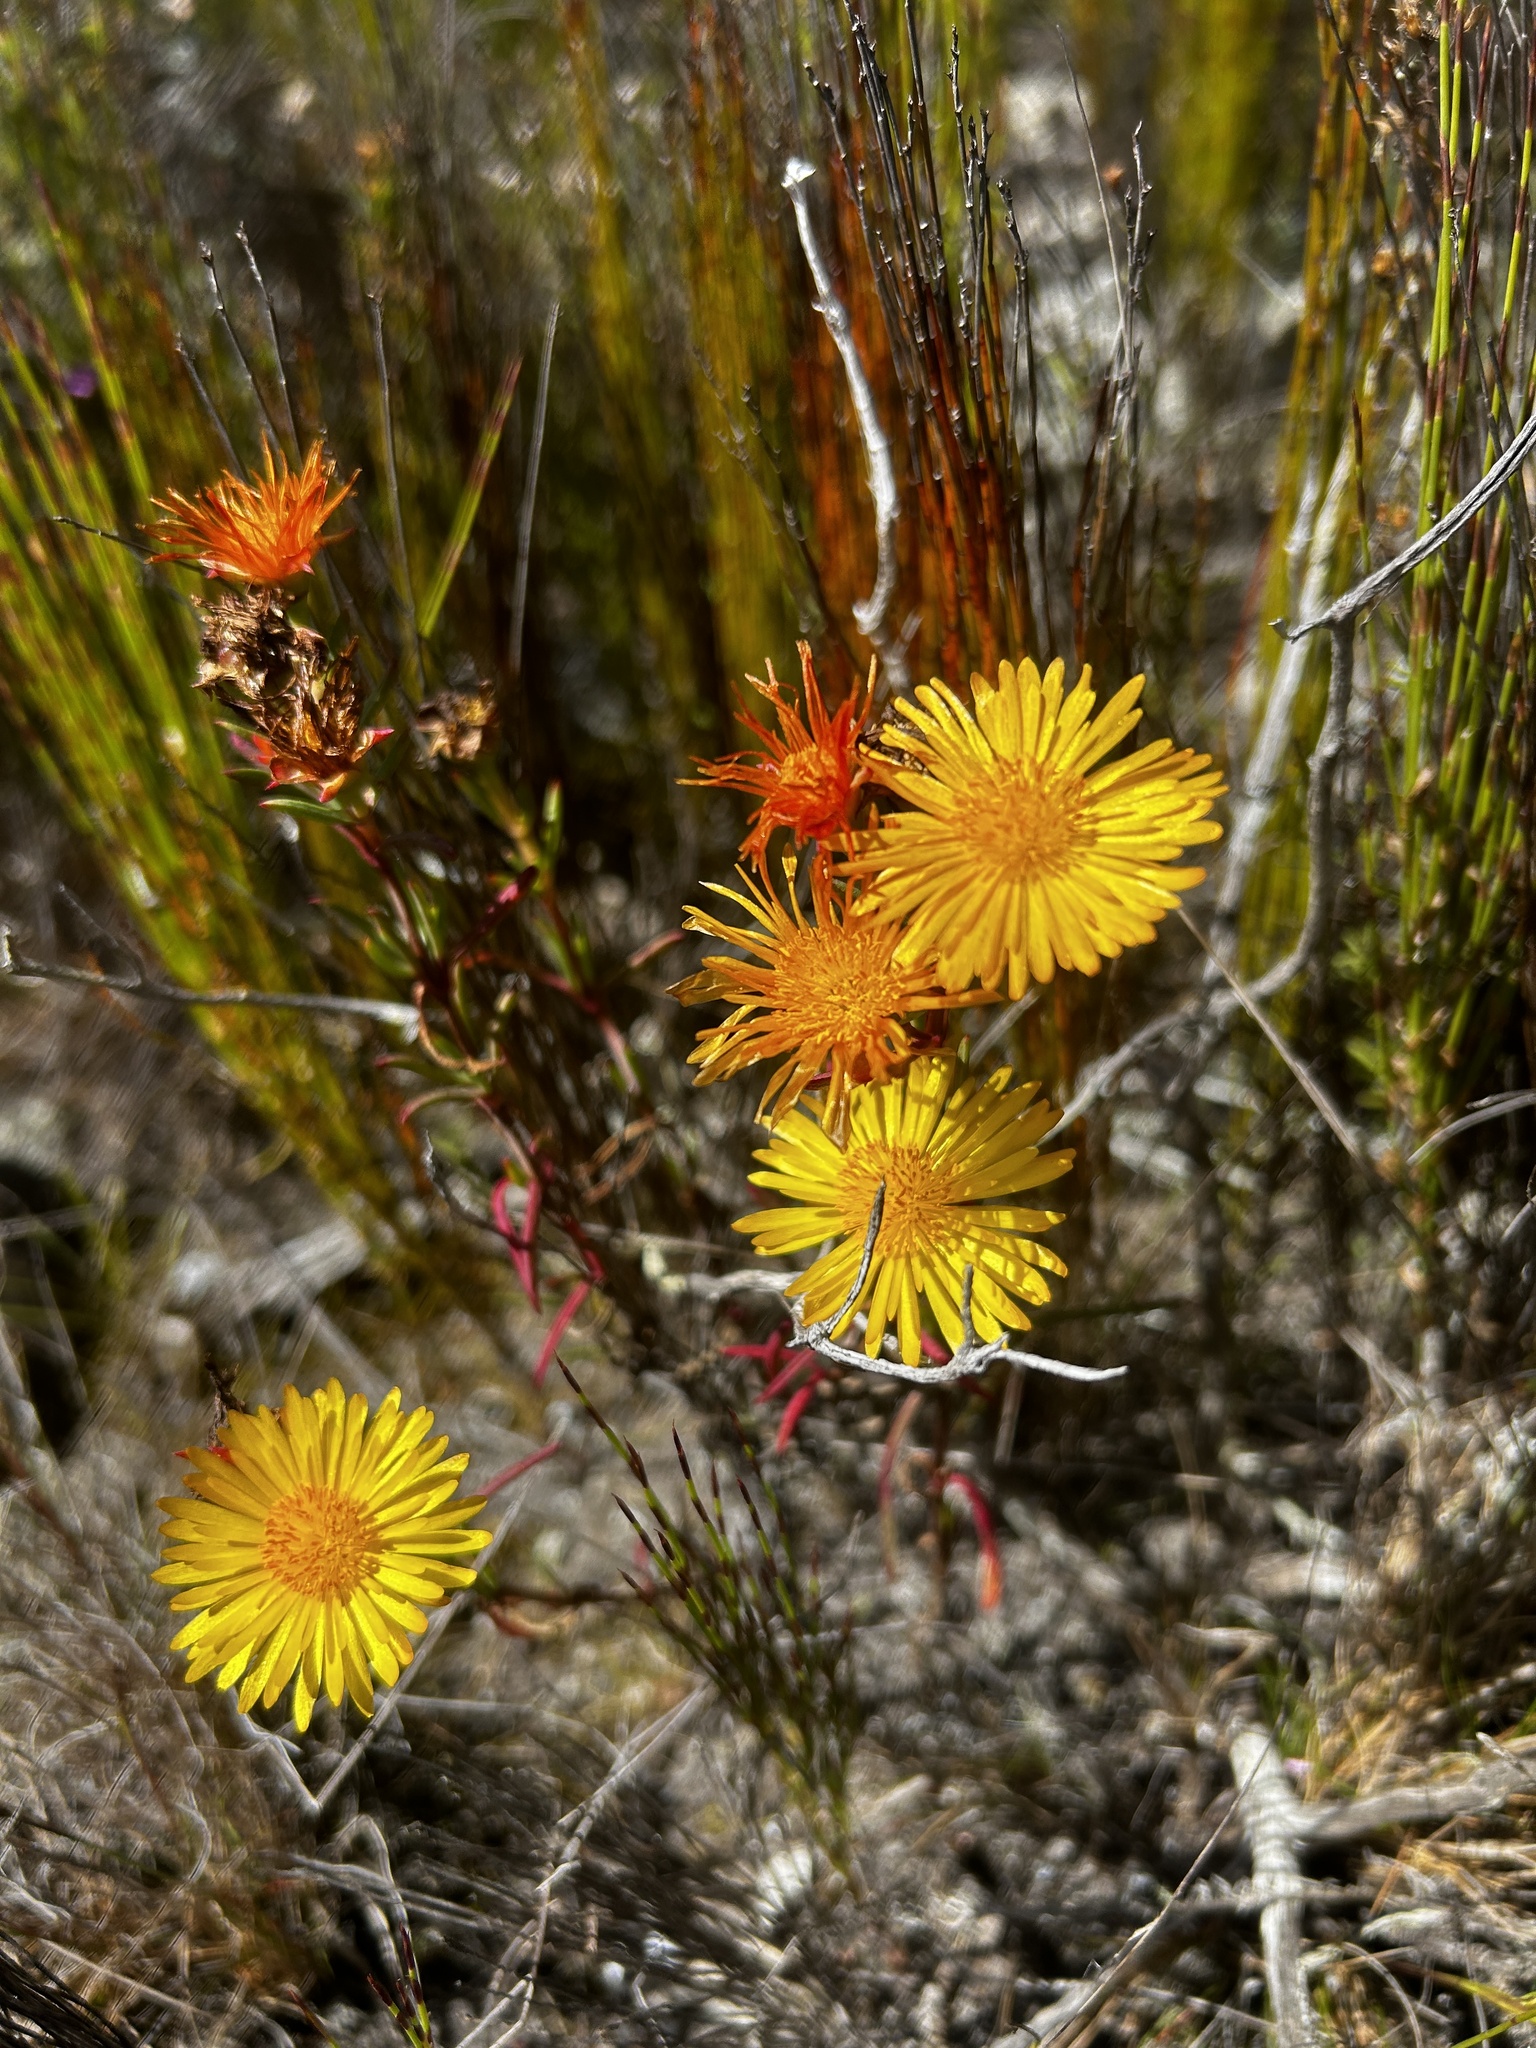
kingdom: Plantae
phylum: Tracheophyta
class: Magnoliopsida
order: Caryophyllales
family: Aizoaceae
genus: Lampranthus
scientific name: Lampranthus bicolor
